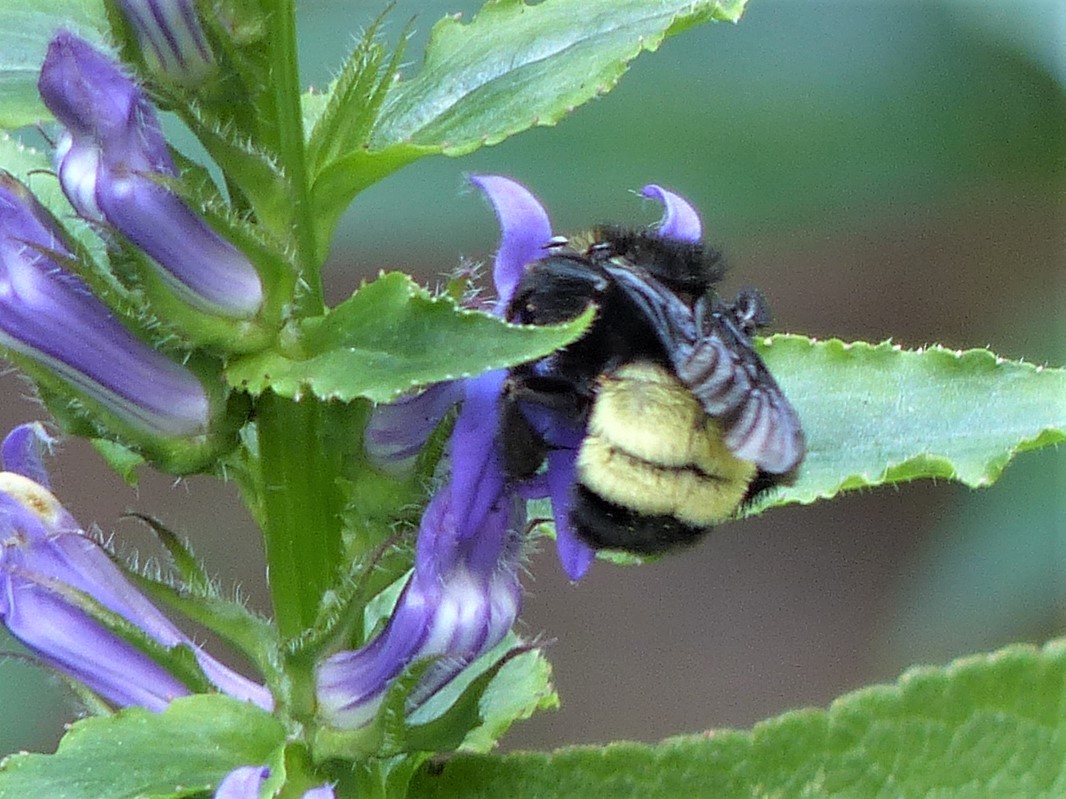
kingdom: Animalia
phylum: Arthropoda
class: Insecta
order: Hymenoptera
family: Apidae
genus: Bombus
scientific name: Bombus pensylvanicus
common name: Bumble bee
